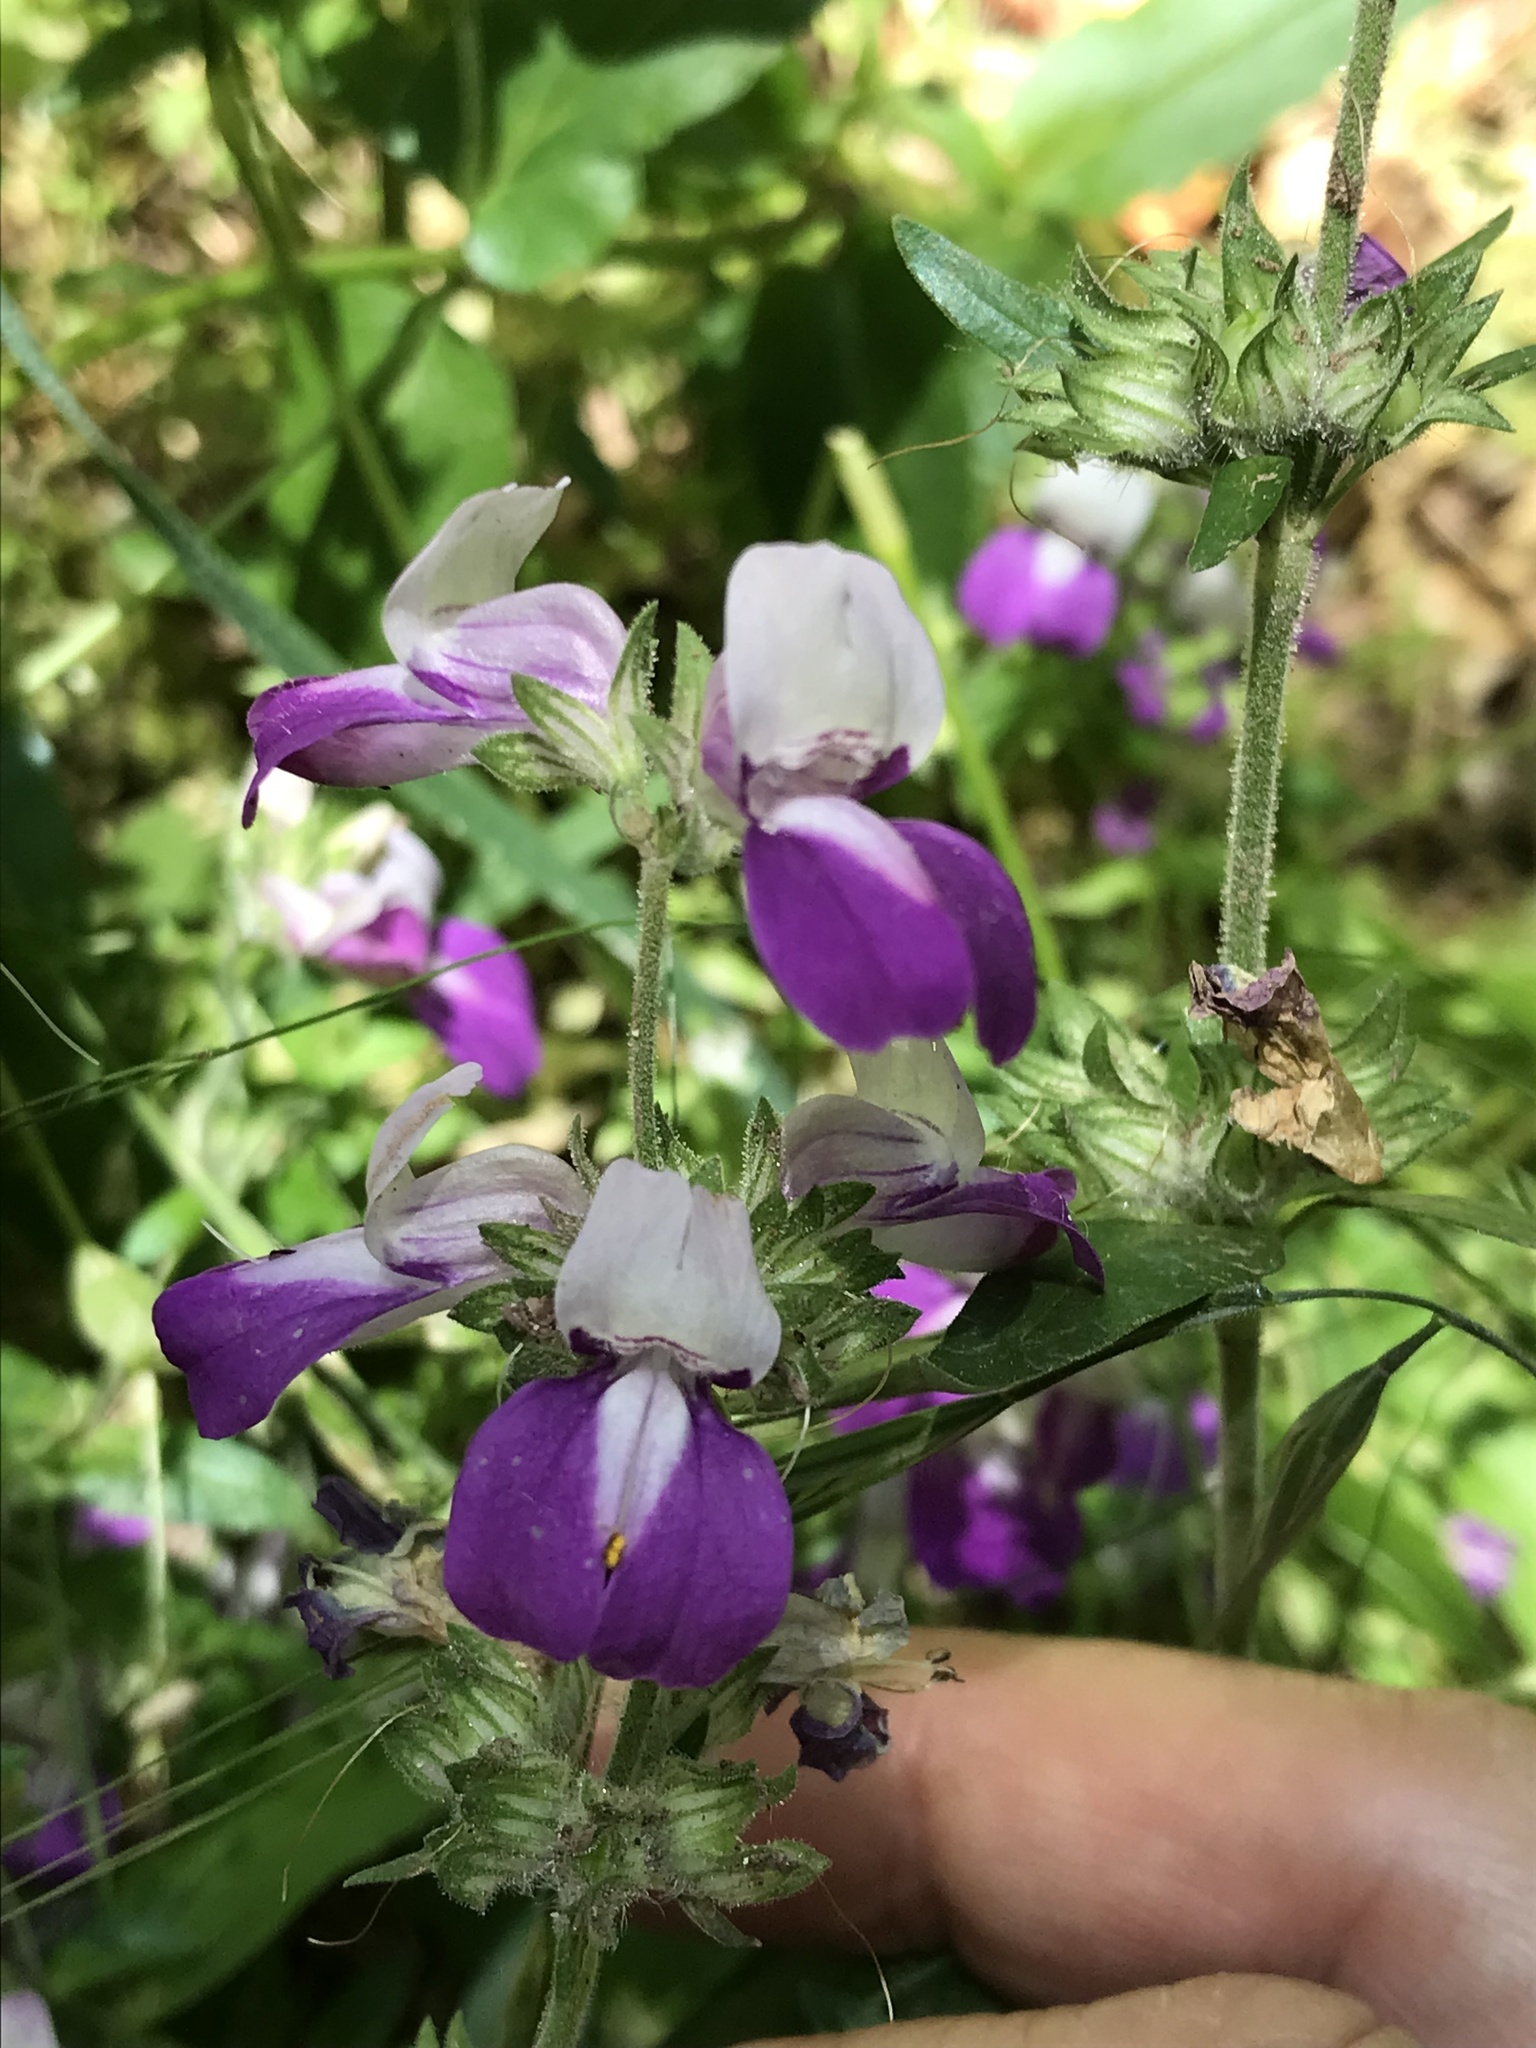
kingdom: Plantae
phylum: Tracheophyta
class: Magnoliopsida
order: Lamiales
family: Plantaginaceae
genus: Collinsia
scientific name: Collinsia heterophylla
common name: Chinese-houses
